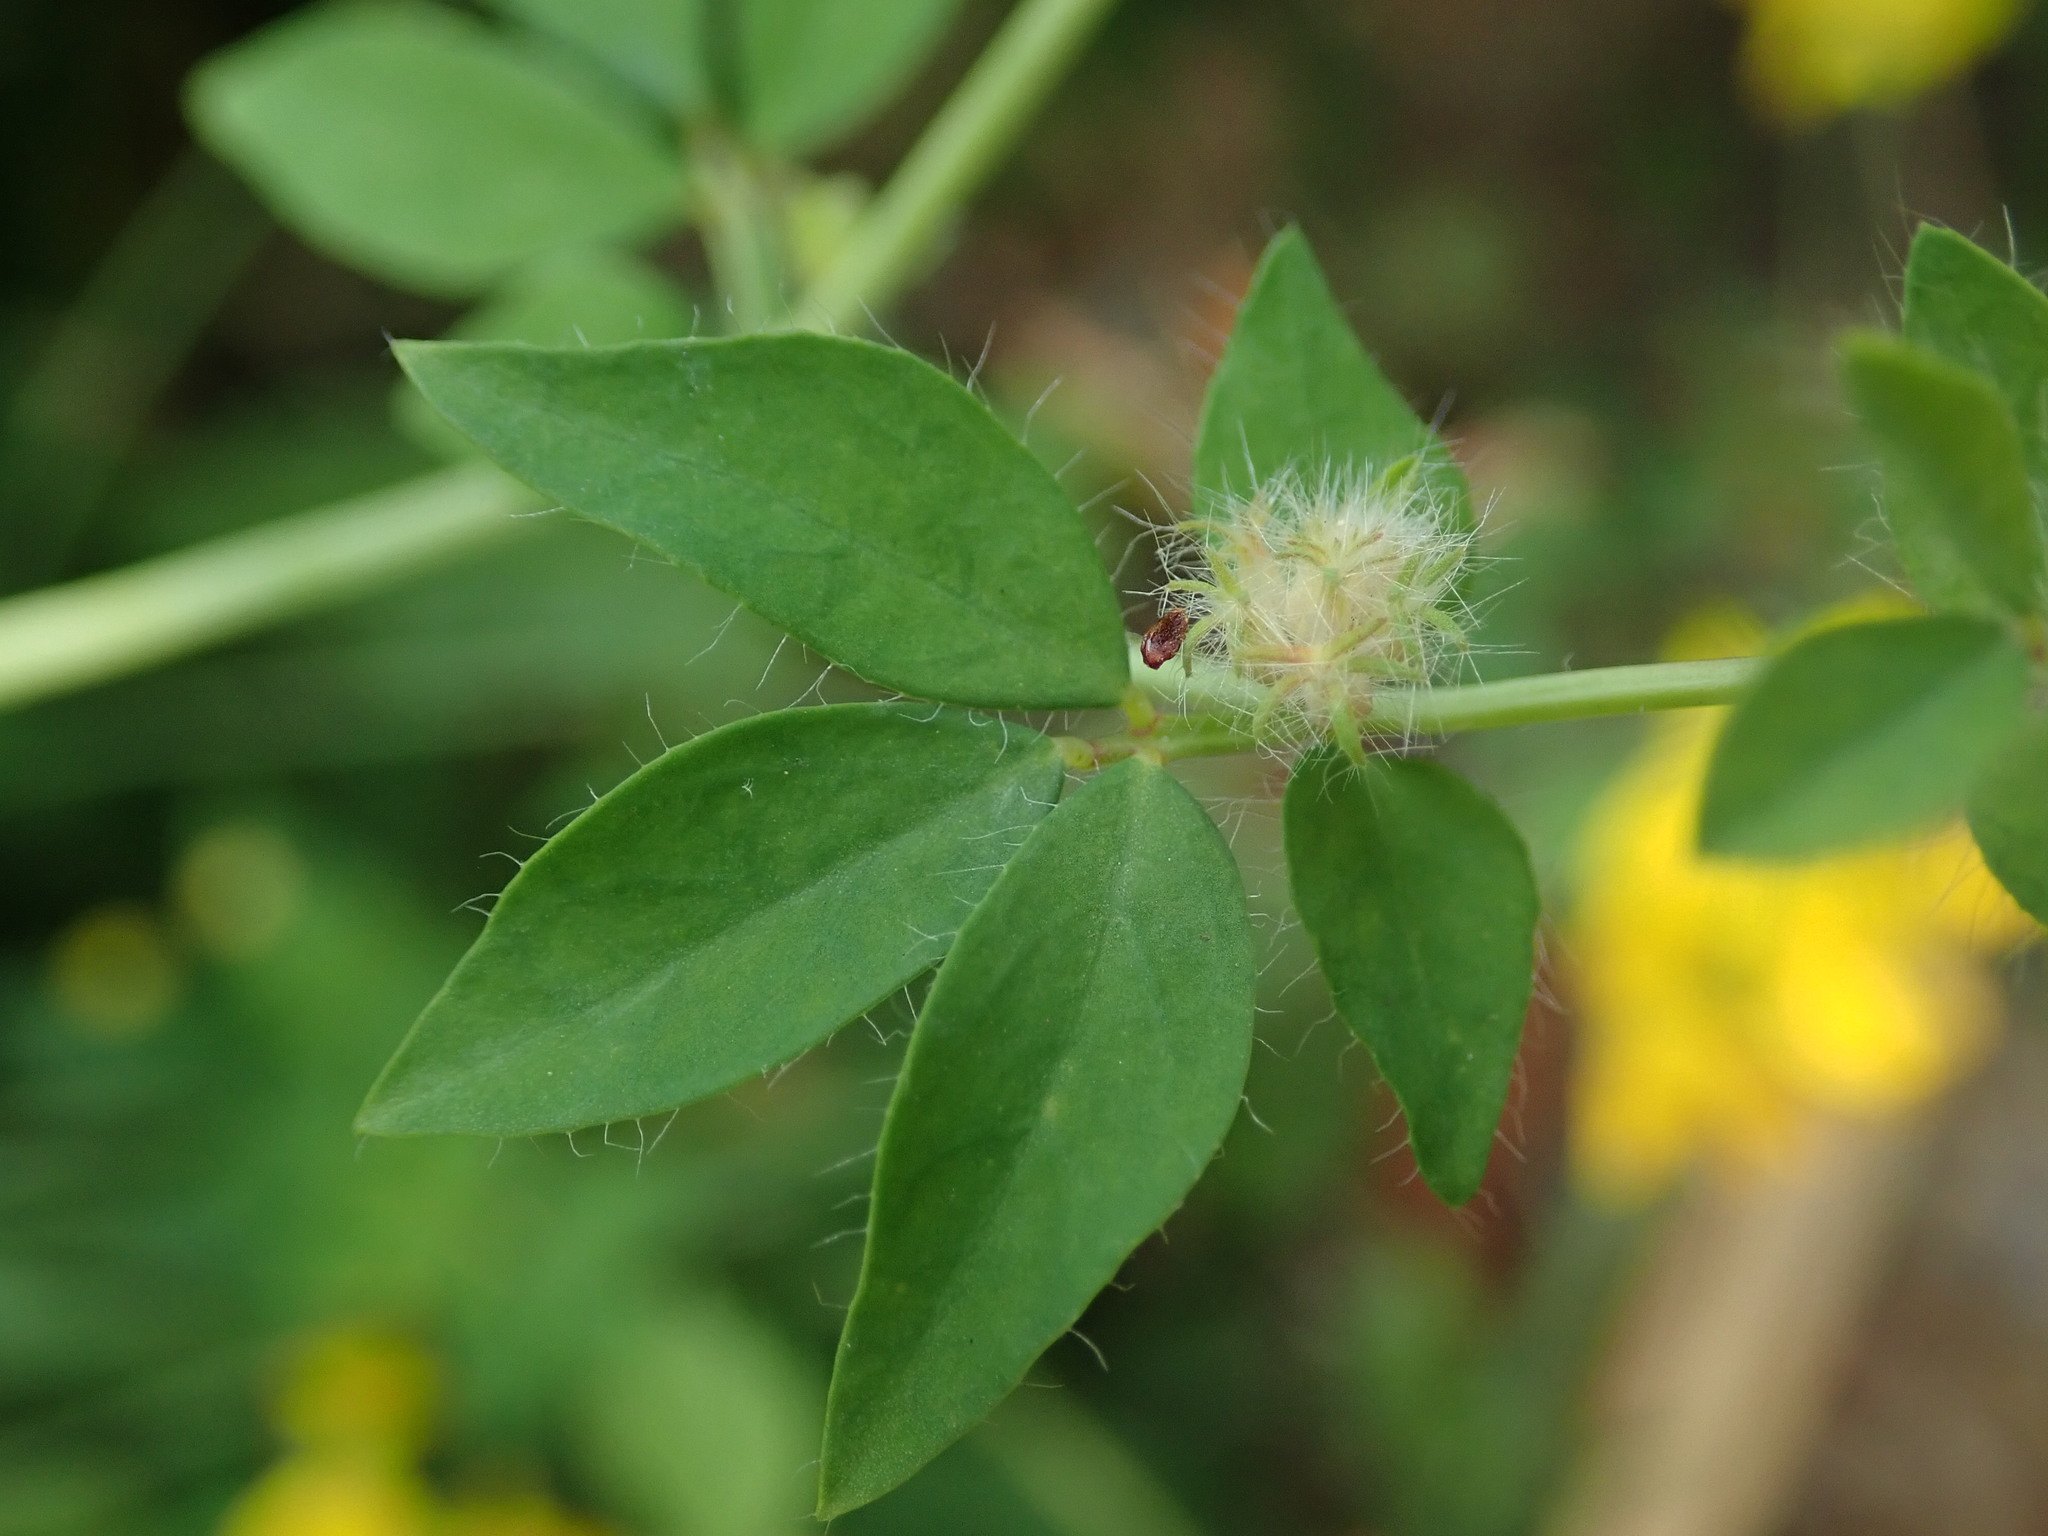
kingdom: Plantae
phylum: Tracheophyta
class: Magnoliopsida
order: Fabales
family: Fabaceae
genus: Lotus
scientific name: Lotus pedunculatus
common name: Greater birdsfoot-trefoil
